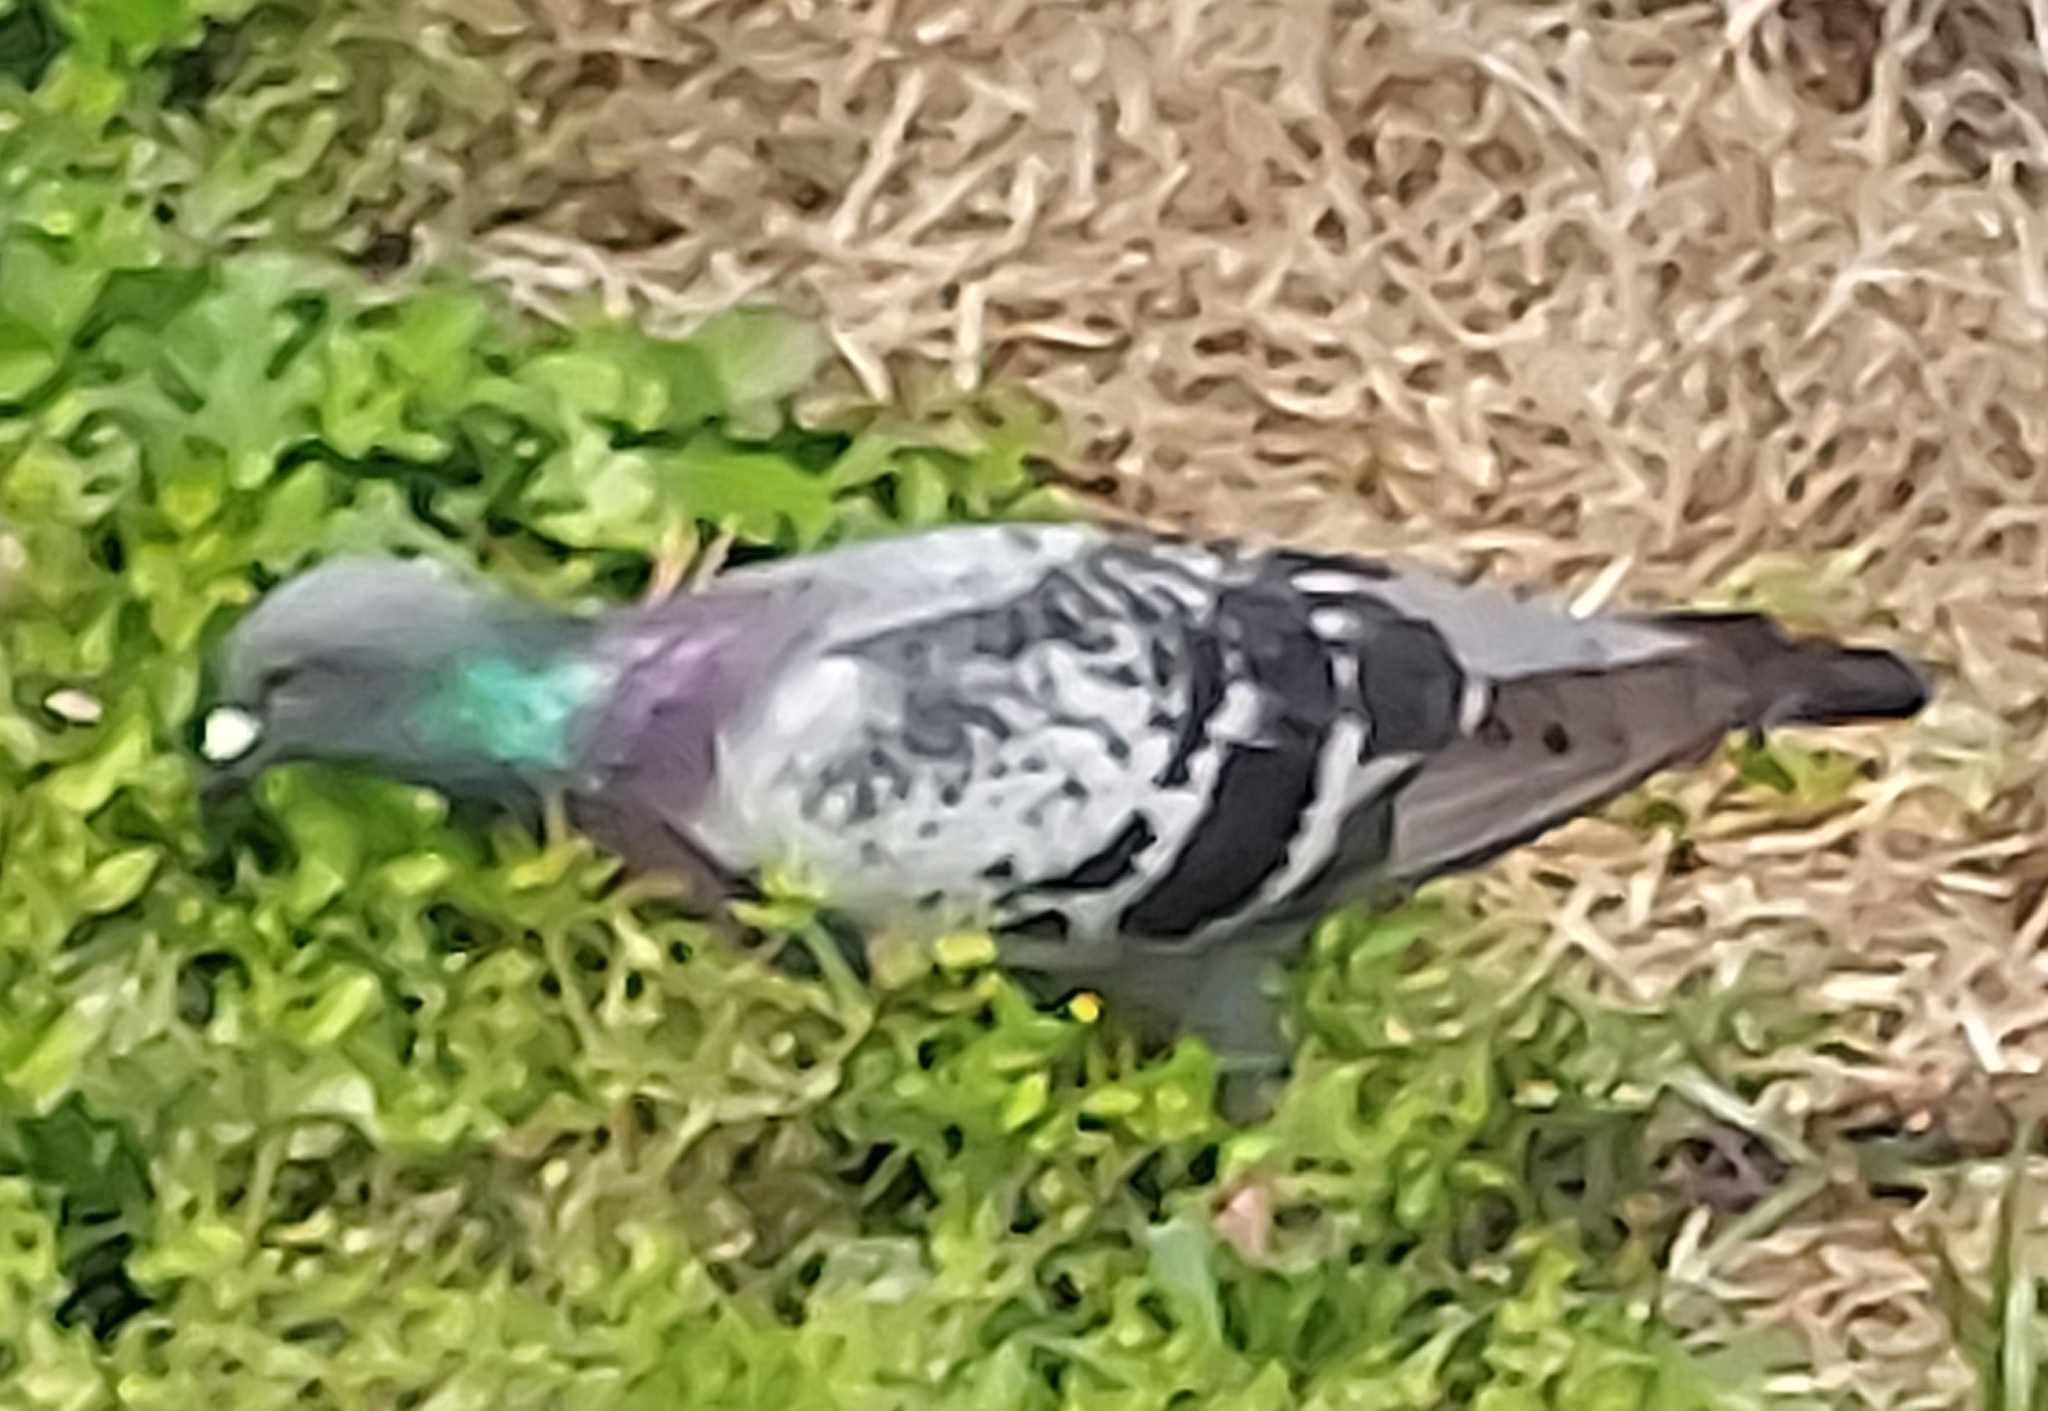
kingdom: Animalia
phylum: Chordata
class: Aves
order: Columbiformes
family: Columbidae
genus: Columba
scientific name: Columba livia
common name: Rock pigeon
